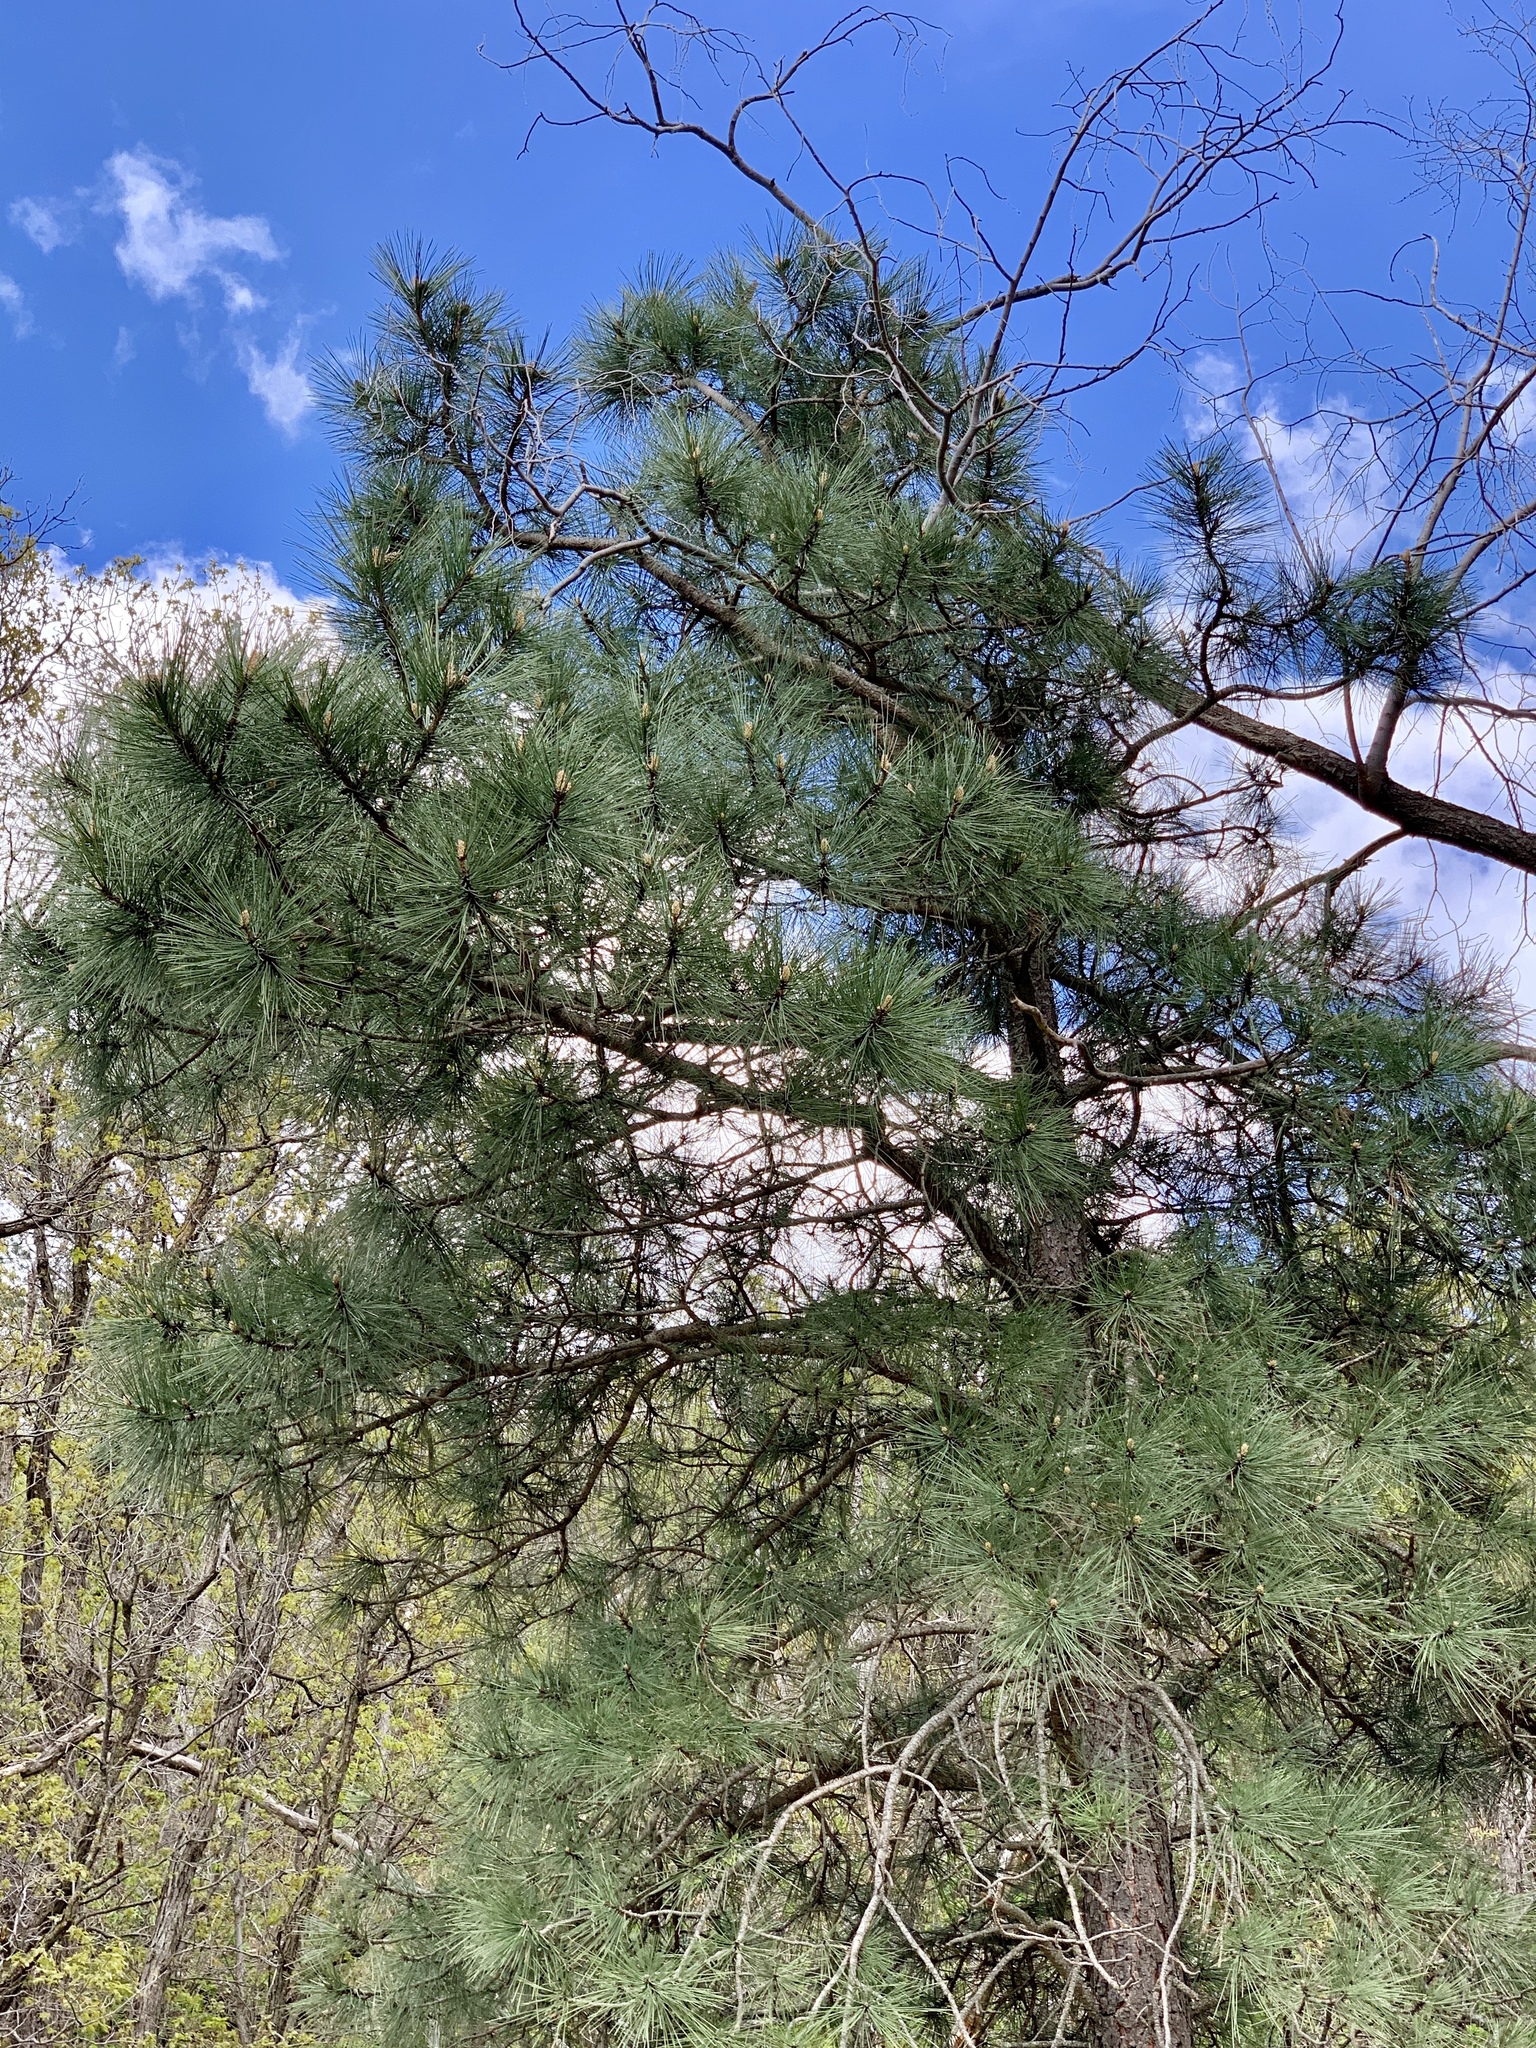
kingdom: Plantae
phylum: Tracheophyta
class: Pinopsida
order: Pinales
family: Pinaceae
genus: Pinus
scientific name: Pinus ponderosa
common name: Western yellow-pine
